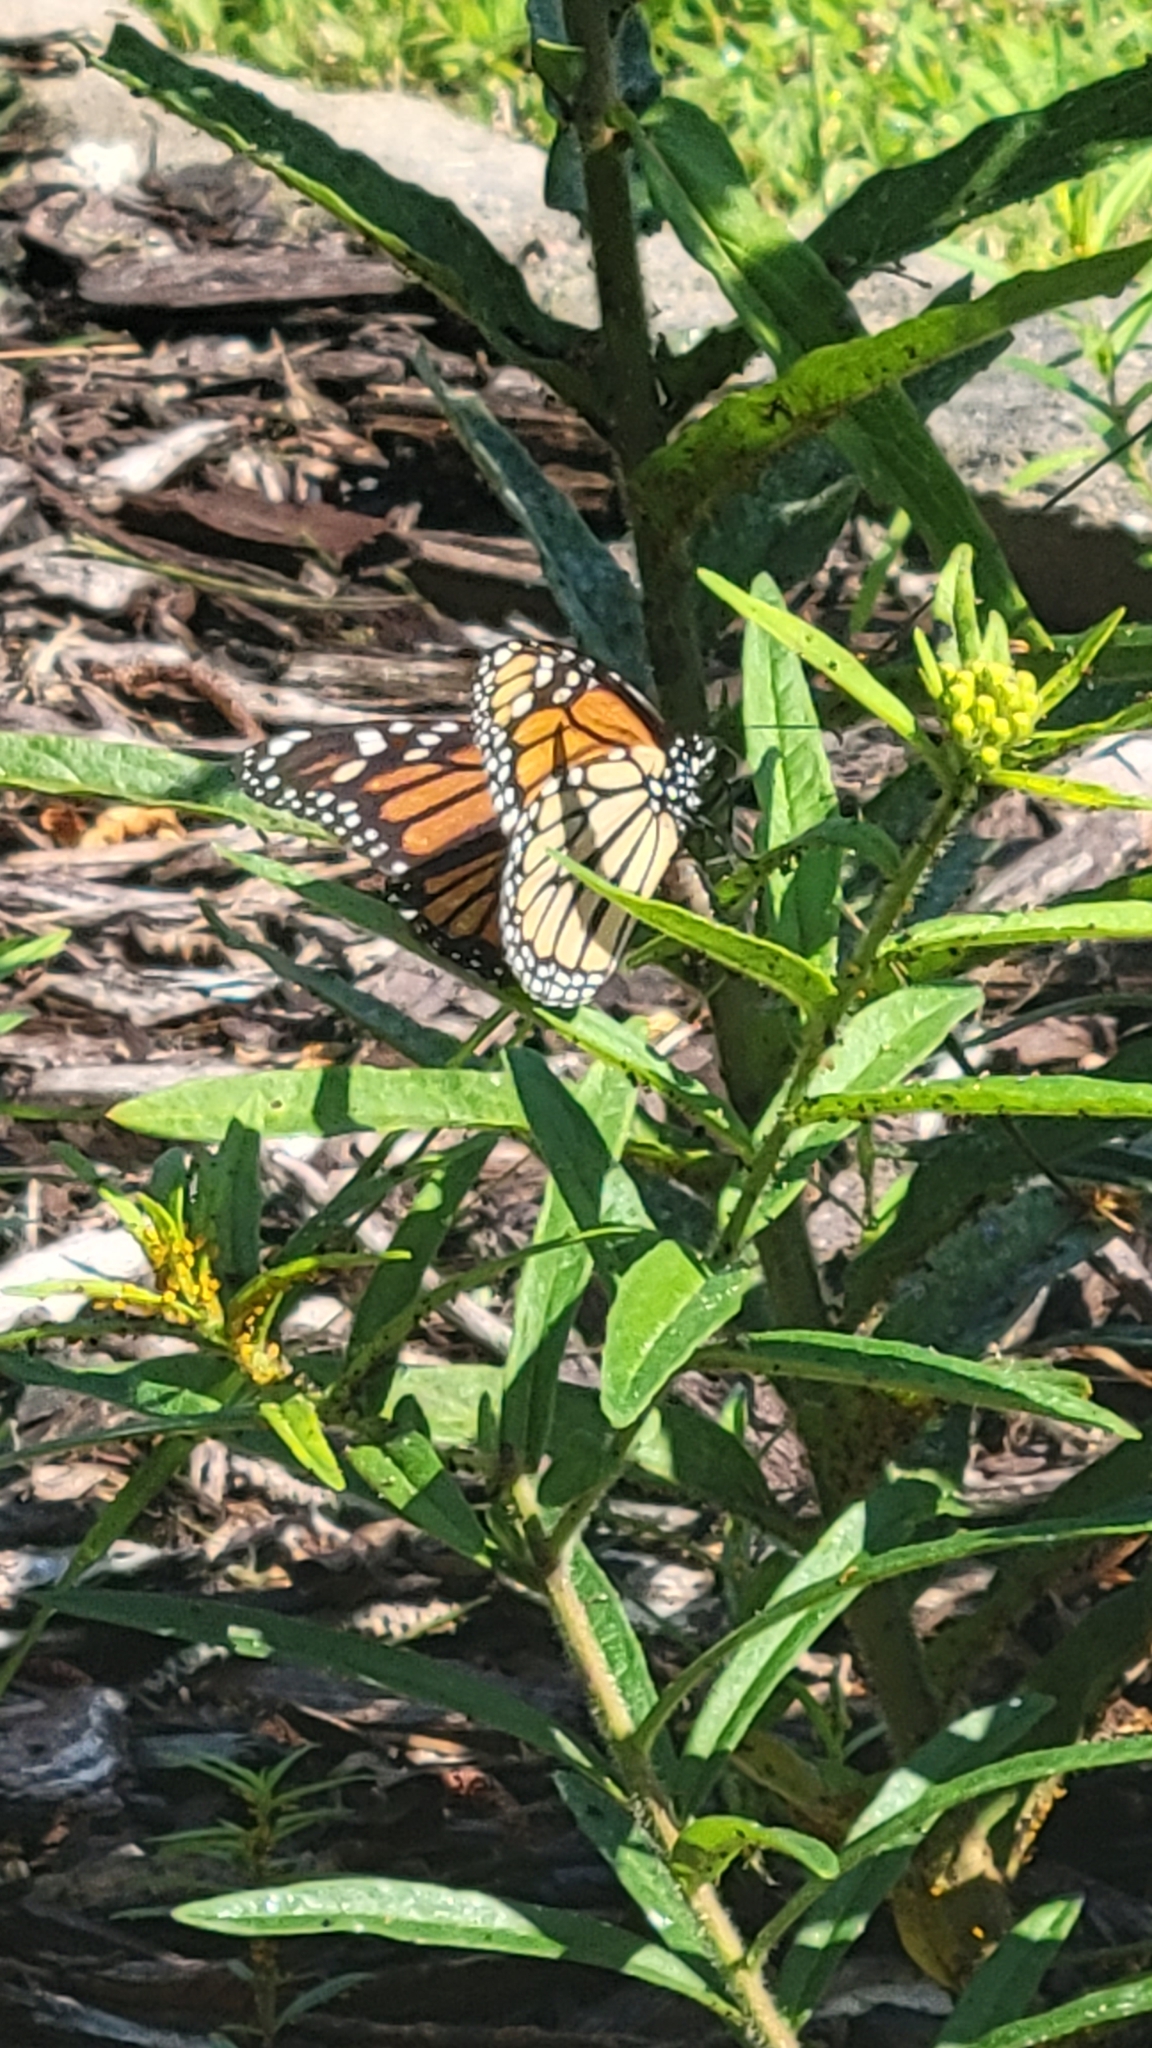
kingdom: Animalia
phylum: Arthropoda
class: Insecta
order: Lepidoptera
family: Nymphalidae
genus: Danaus
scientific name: Danaus plexippus
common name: Monarch
